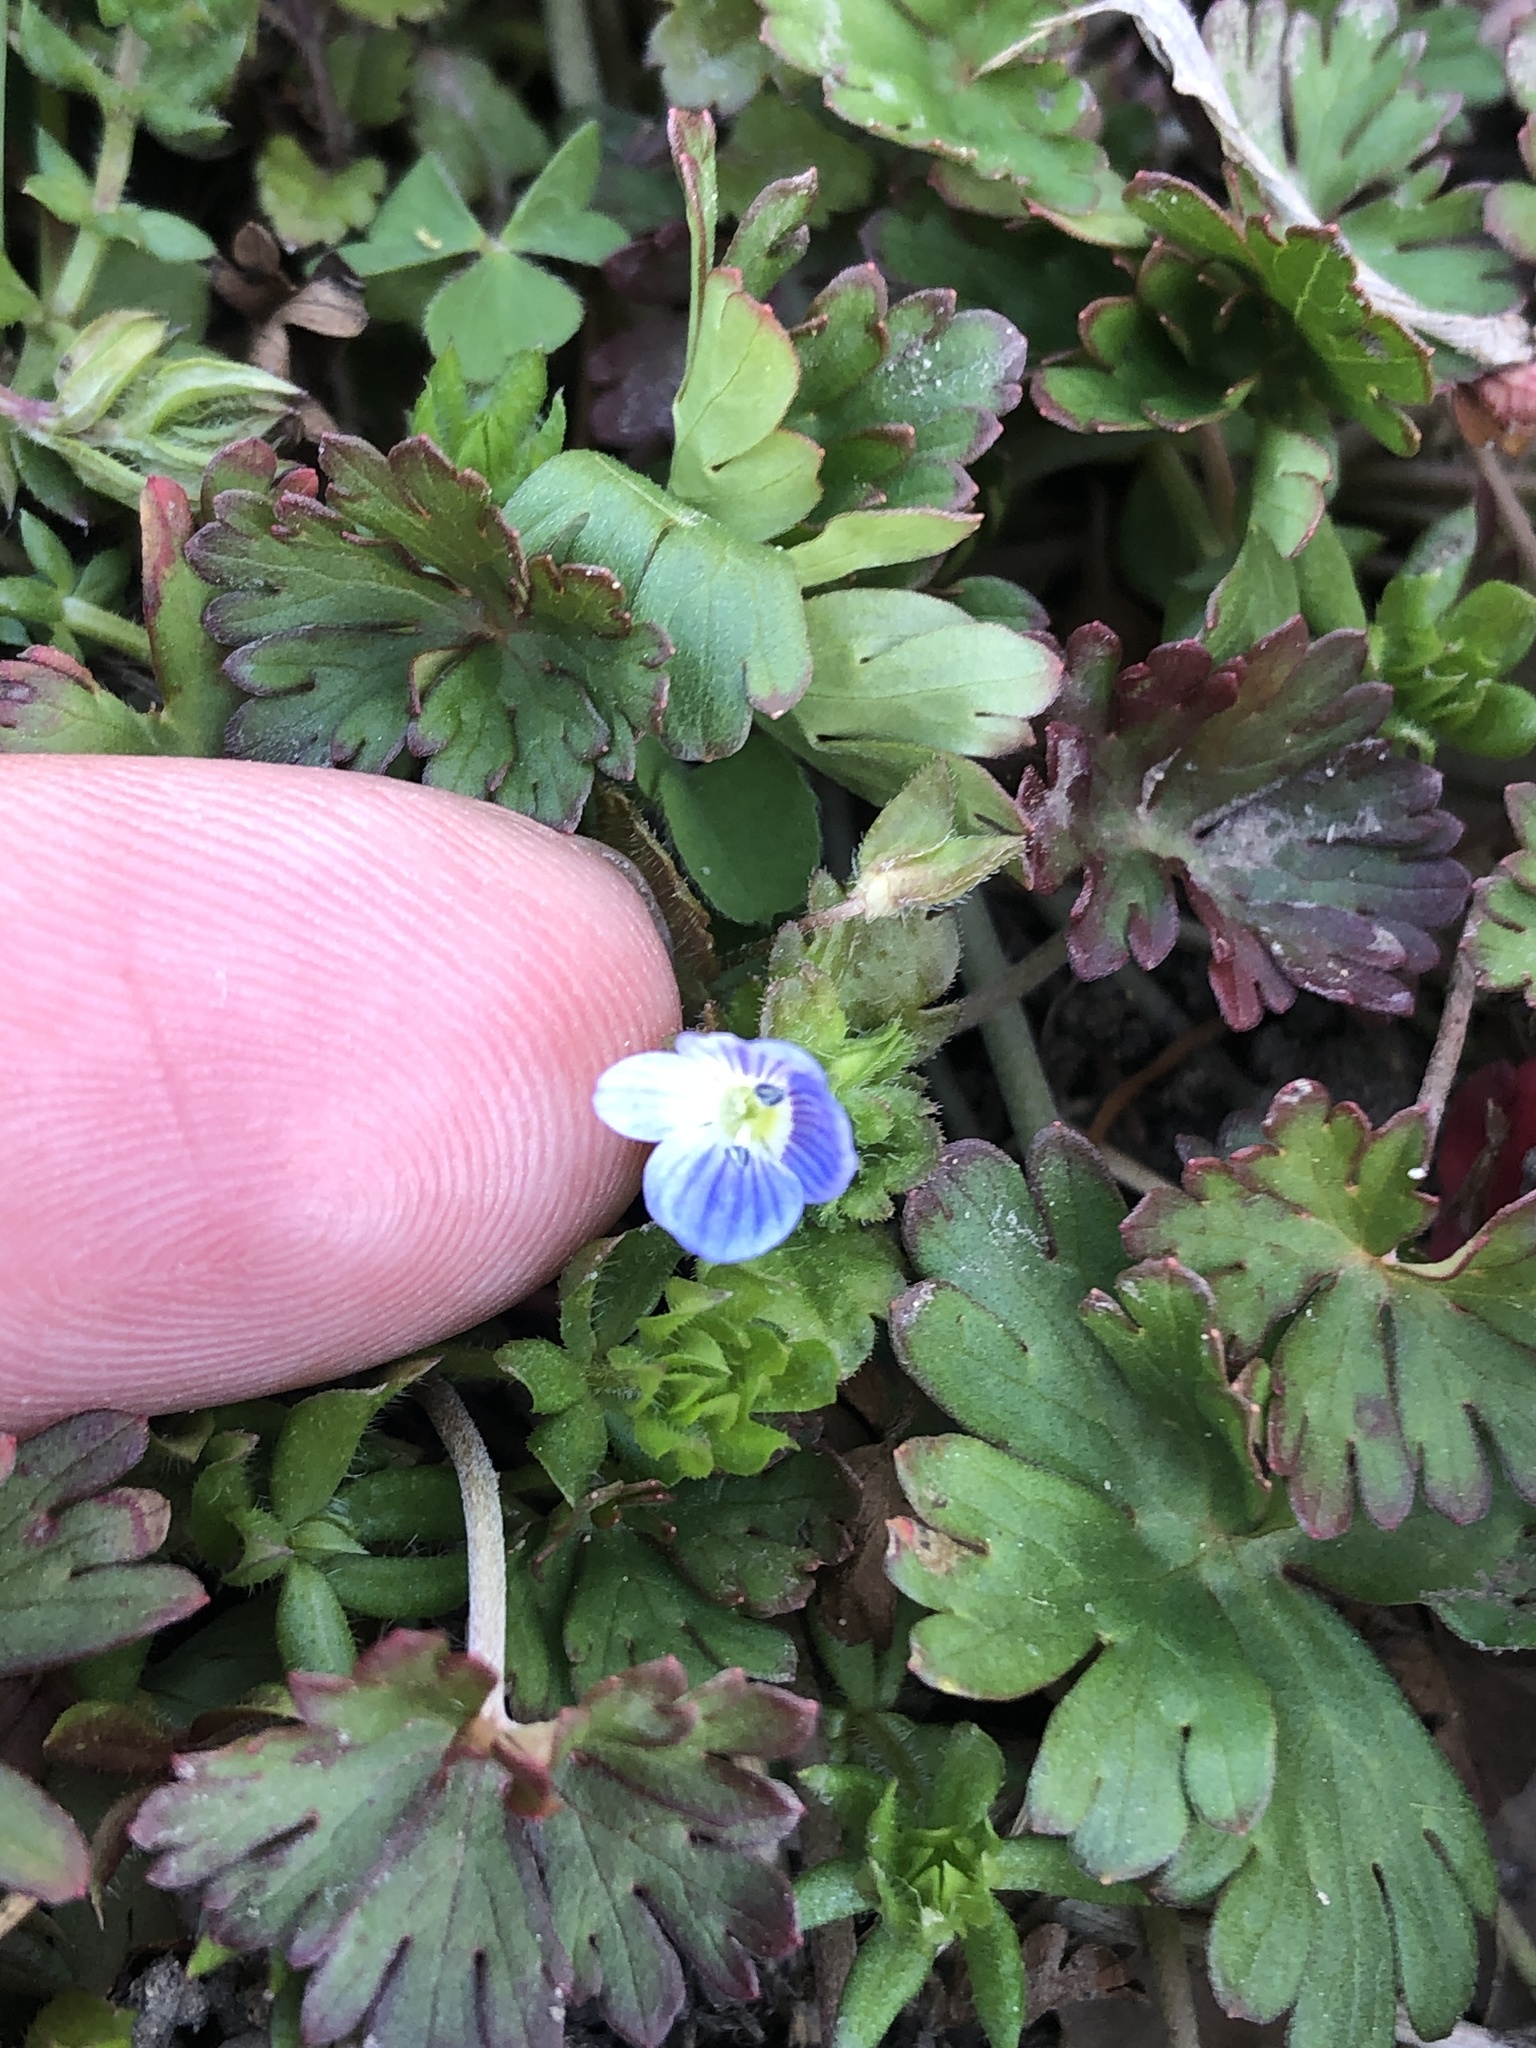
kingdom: Plantae
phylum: Tracheophyta
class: Magnoliopsida
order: Lamiales
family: Plantaginaceae
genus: Veronica
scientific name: Veronica persica
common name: Common field-speedwell
